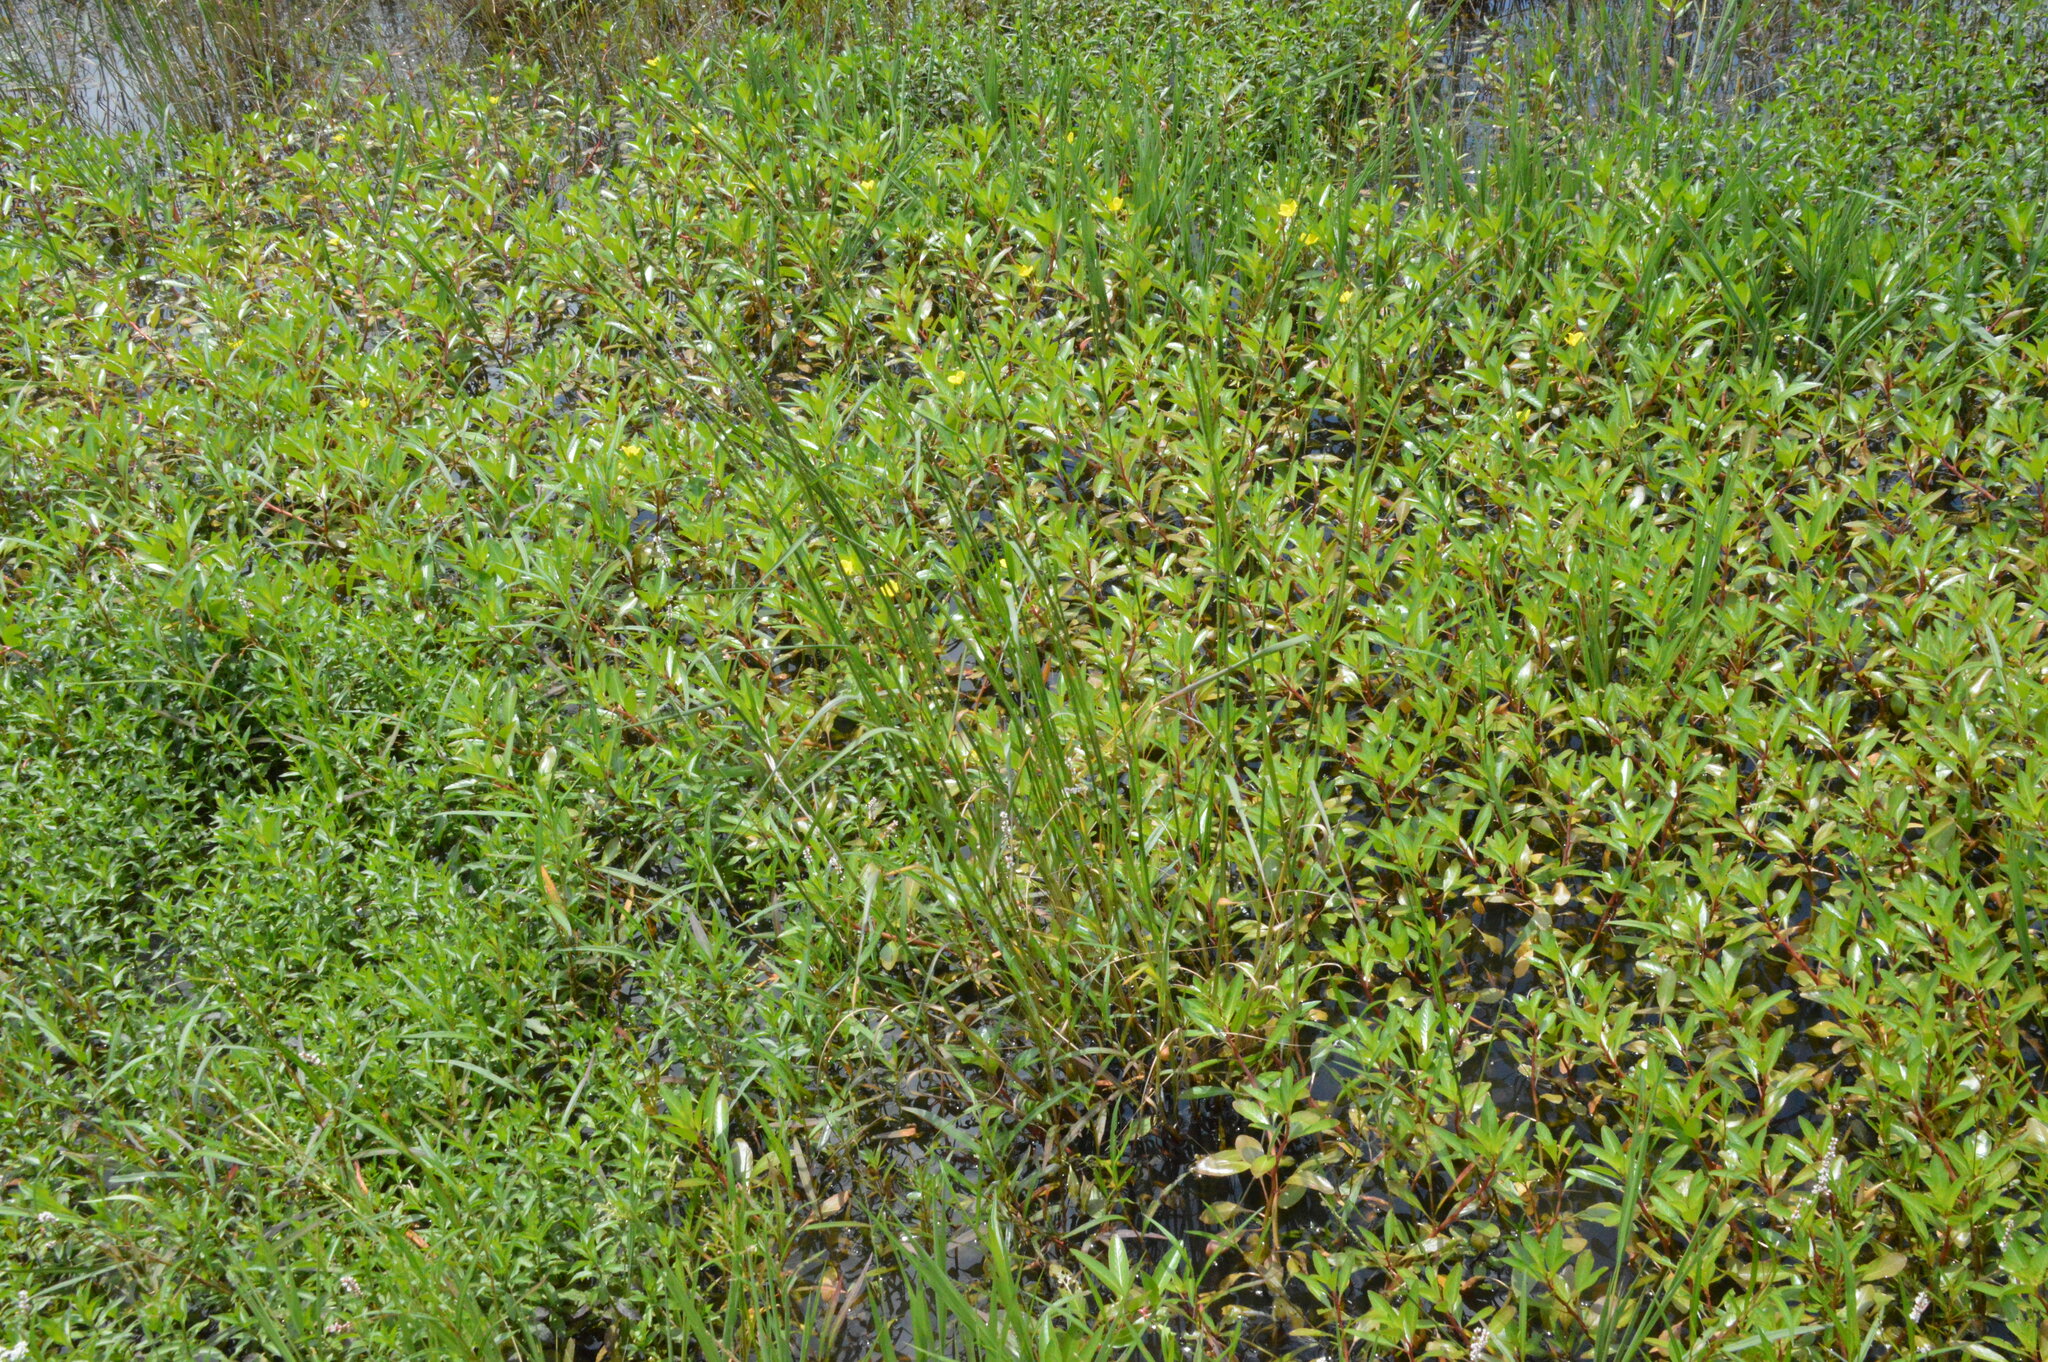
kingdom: Plantae
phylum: Tracheophyta
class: Liliopsida
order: Poales
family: Poaceae
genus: Setaria
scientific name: Setaria geminata
